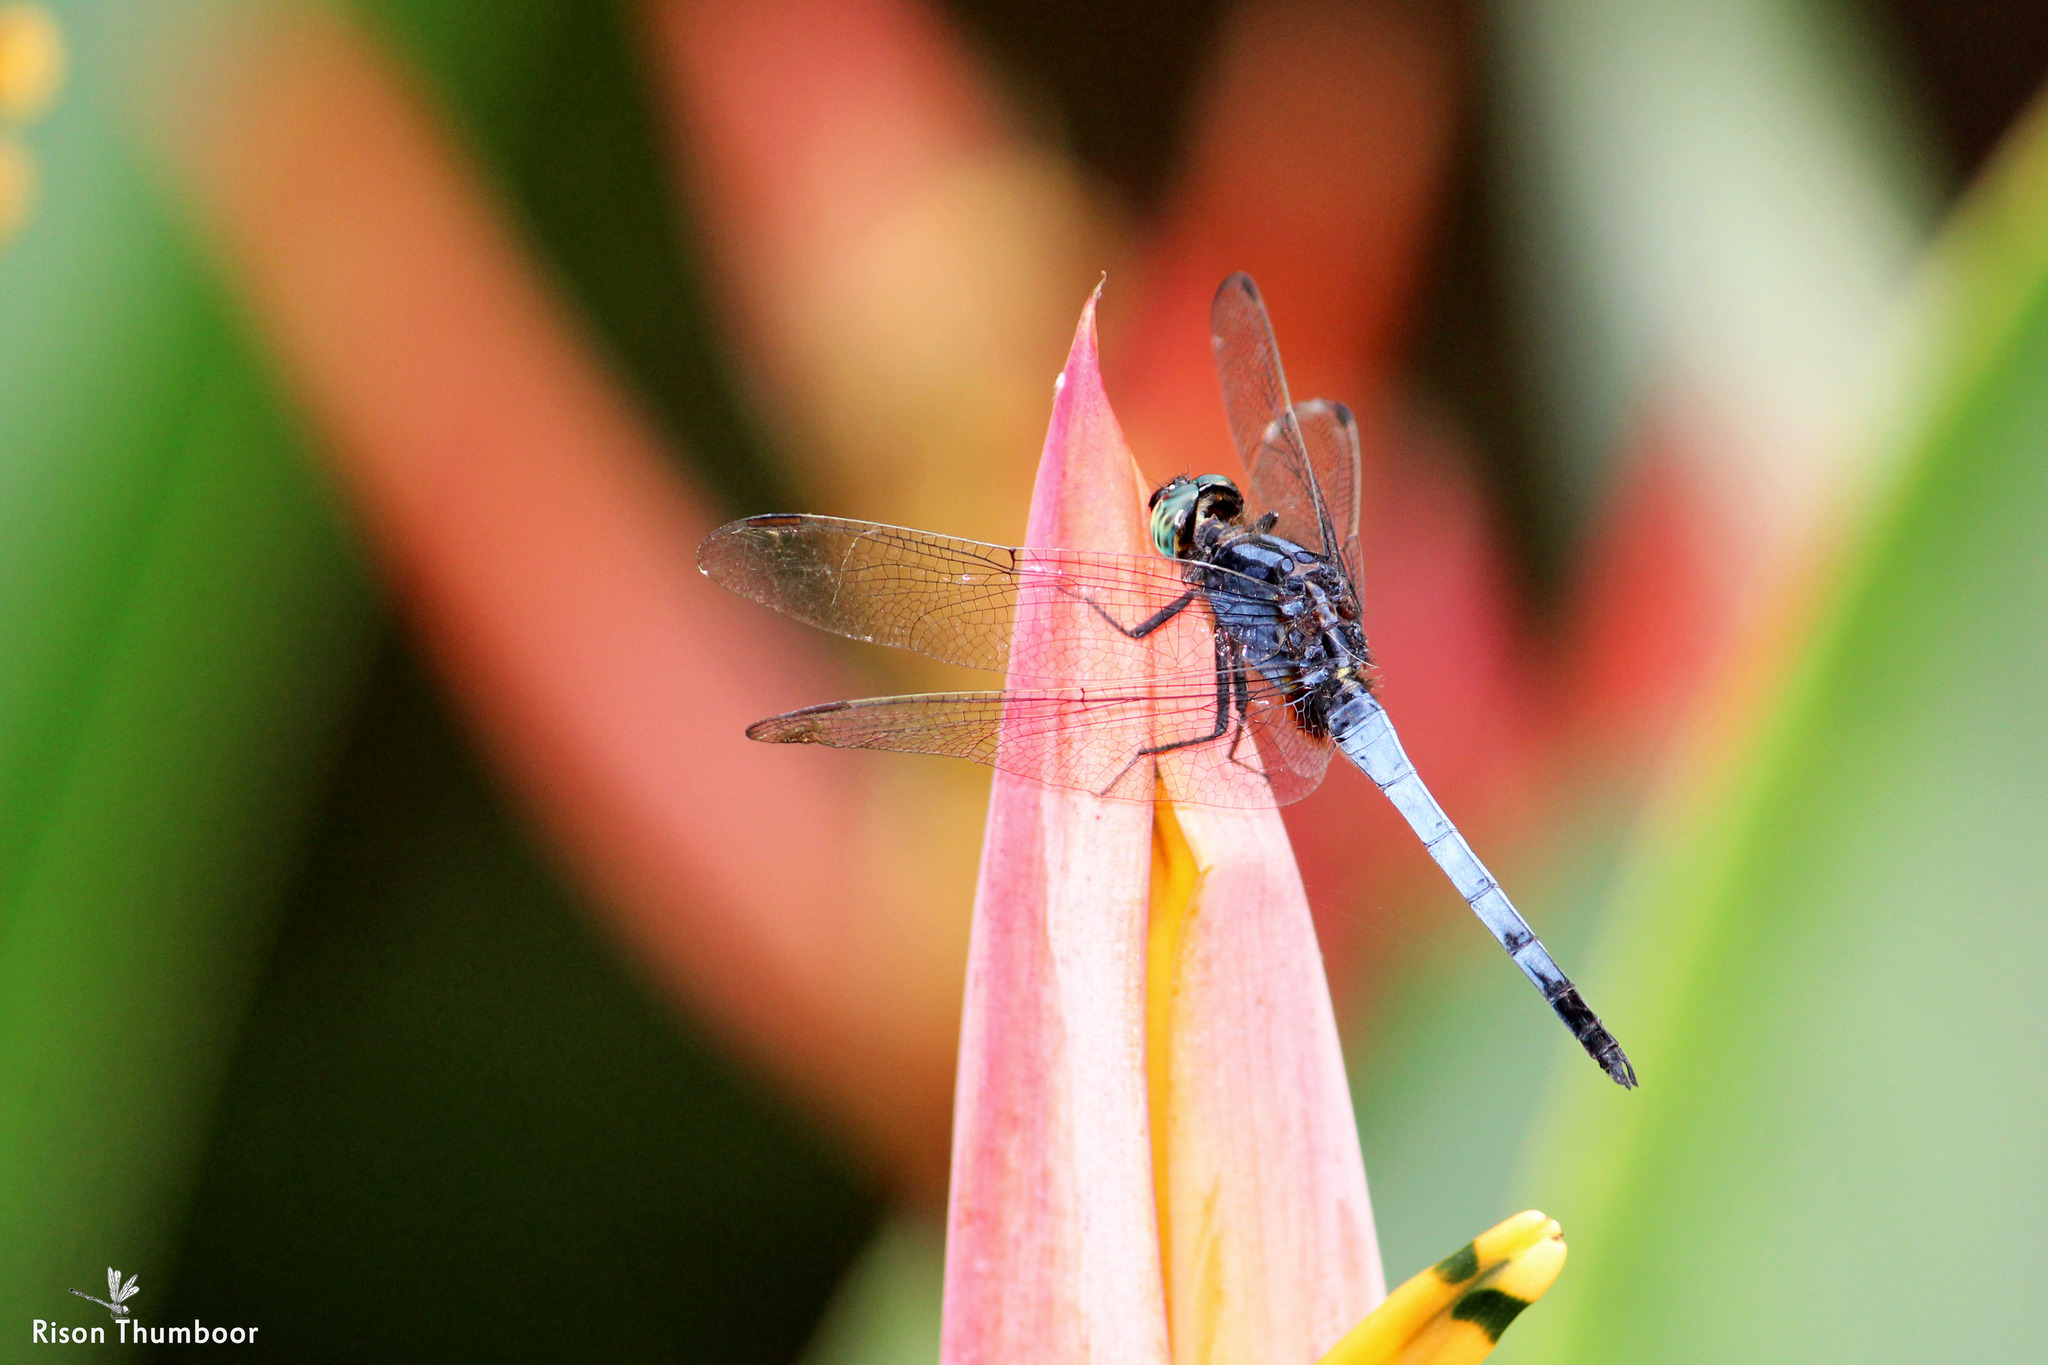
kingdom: Animalia
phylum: Arthropoda
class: Insecta
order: Odonata
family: Libellulidae
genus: Orthetrum
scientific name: Orthetrum glaucum
